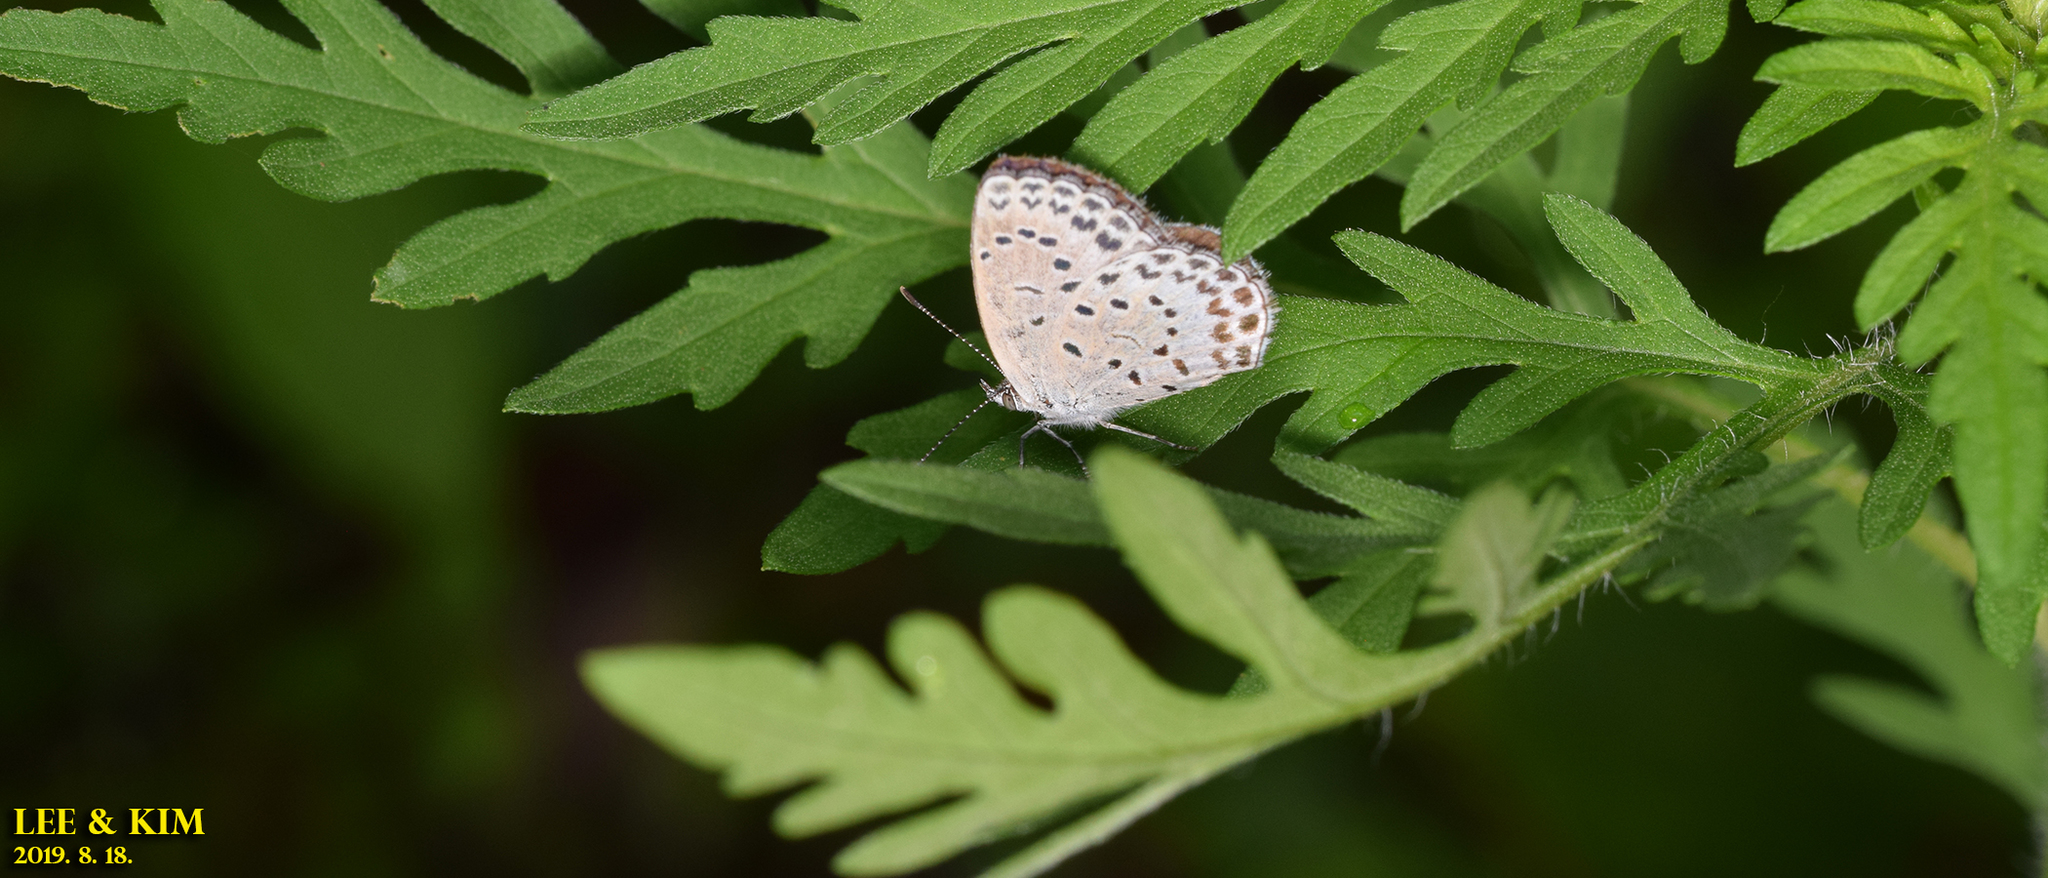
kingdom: Animalia
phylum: Arthropoda
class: Insecta
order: Lepidoptera
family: Lycaenidae
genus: Pseudozizeeria
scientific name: Pseudozizeeria maha
